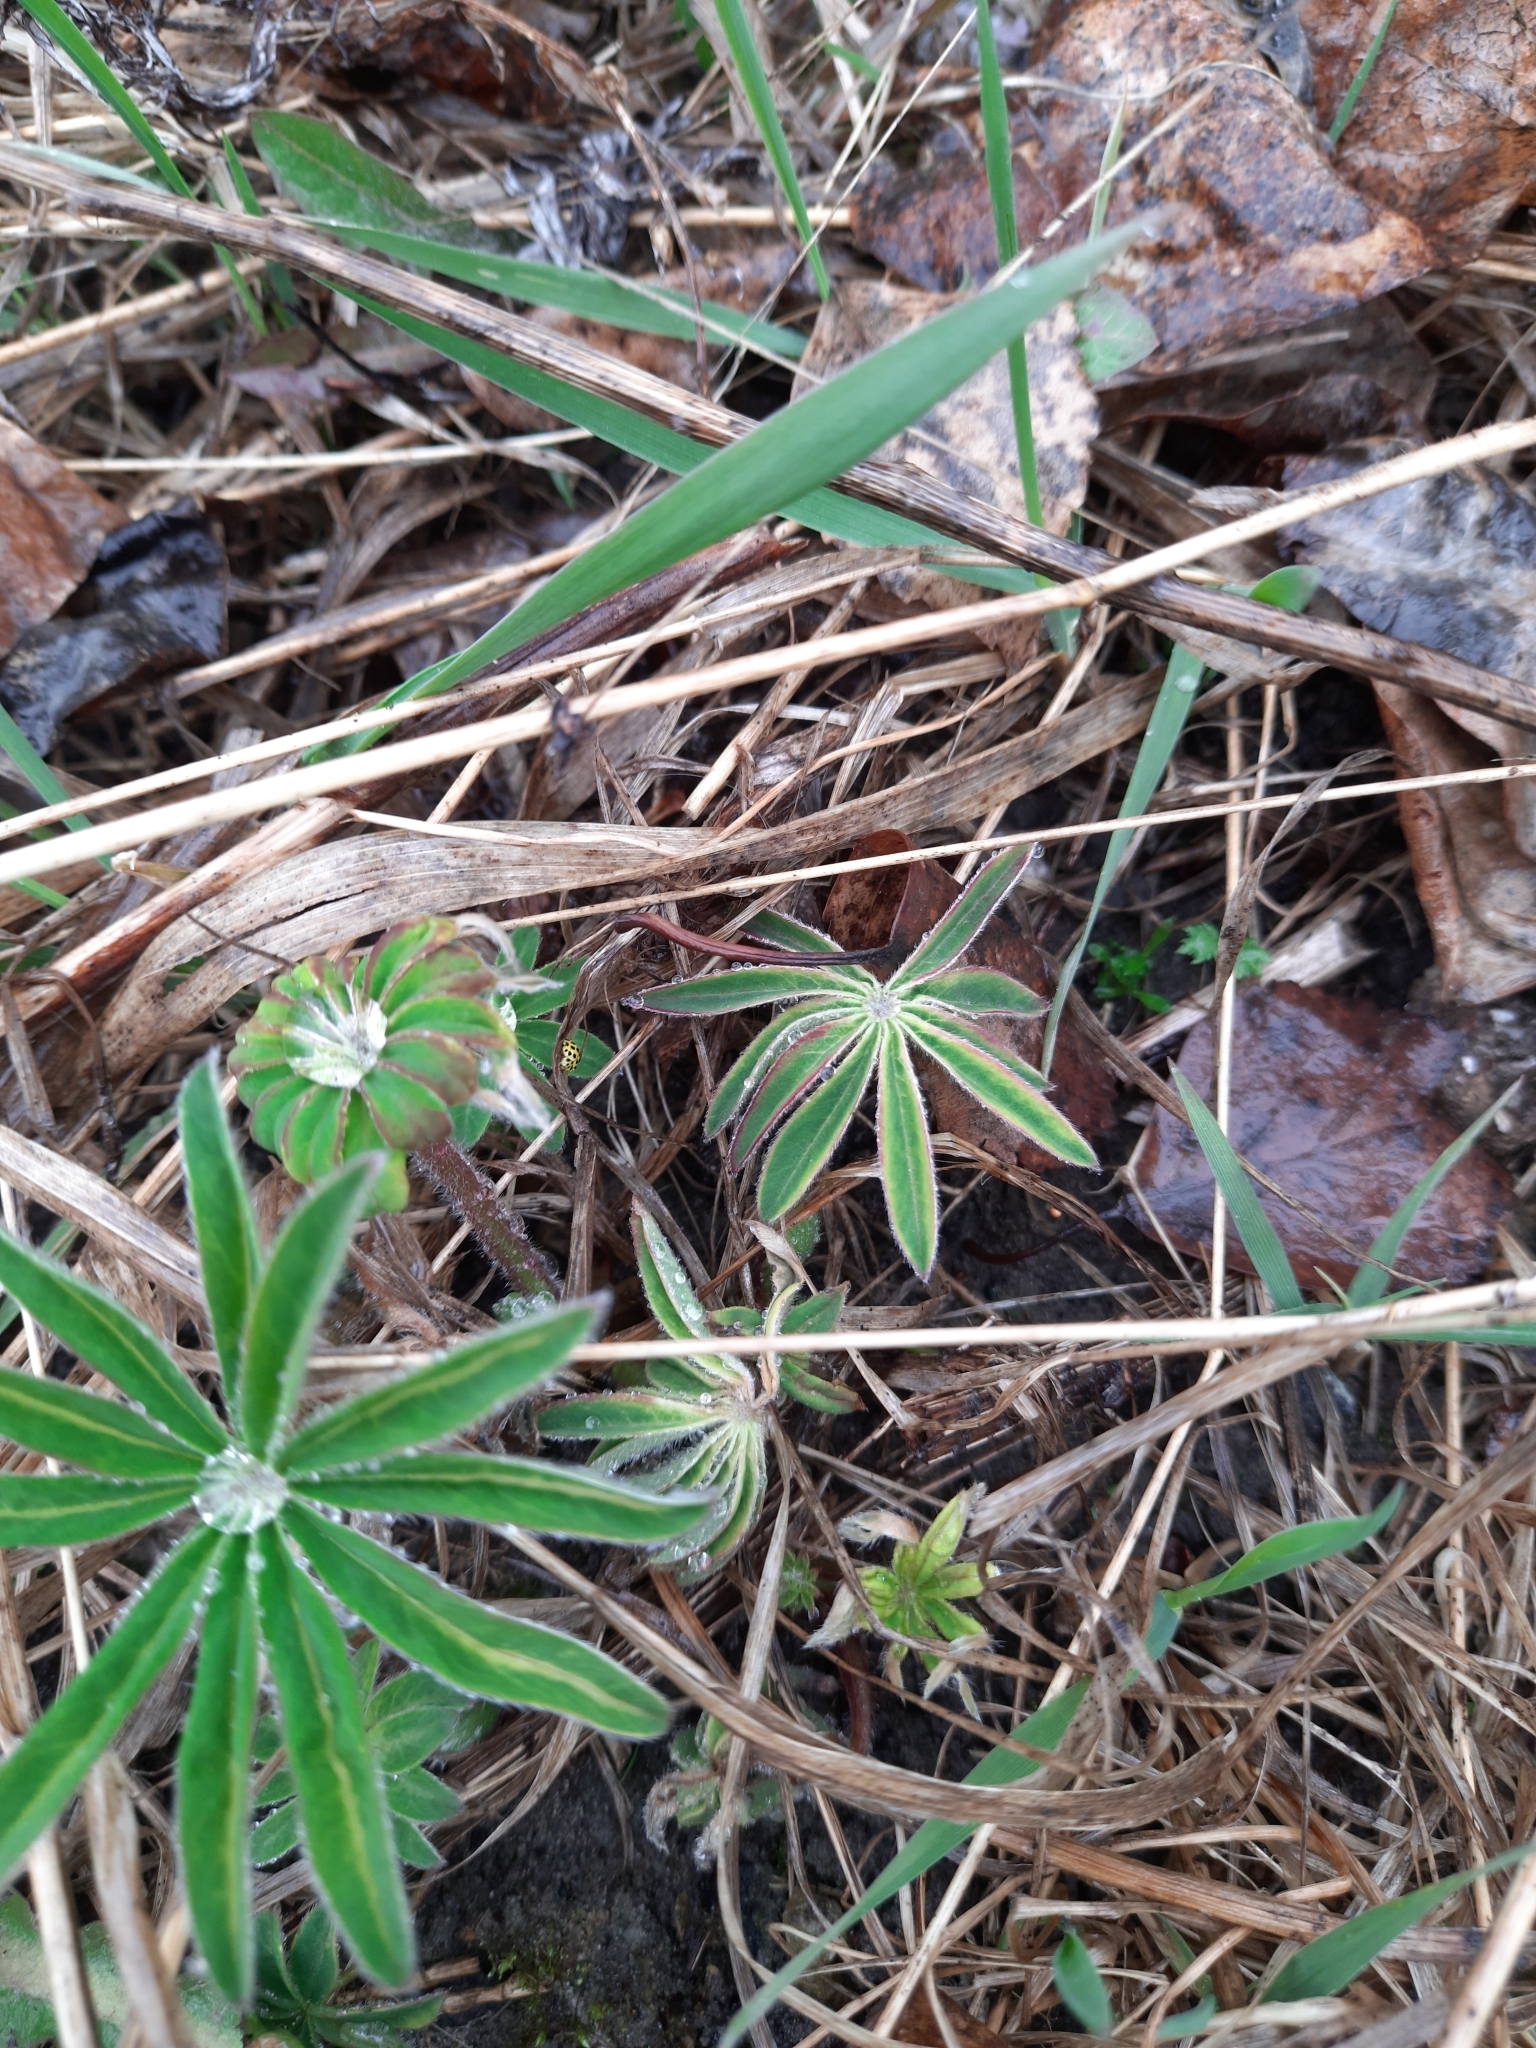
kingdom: Plantae
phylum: Tracheophyta
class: Magnoliopsida
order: Fabales
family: Fabaceae
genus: Lupinus
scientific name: Lupinus polyphyllus
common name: Garden lupin
